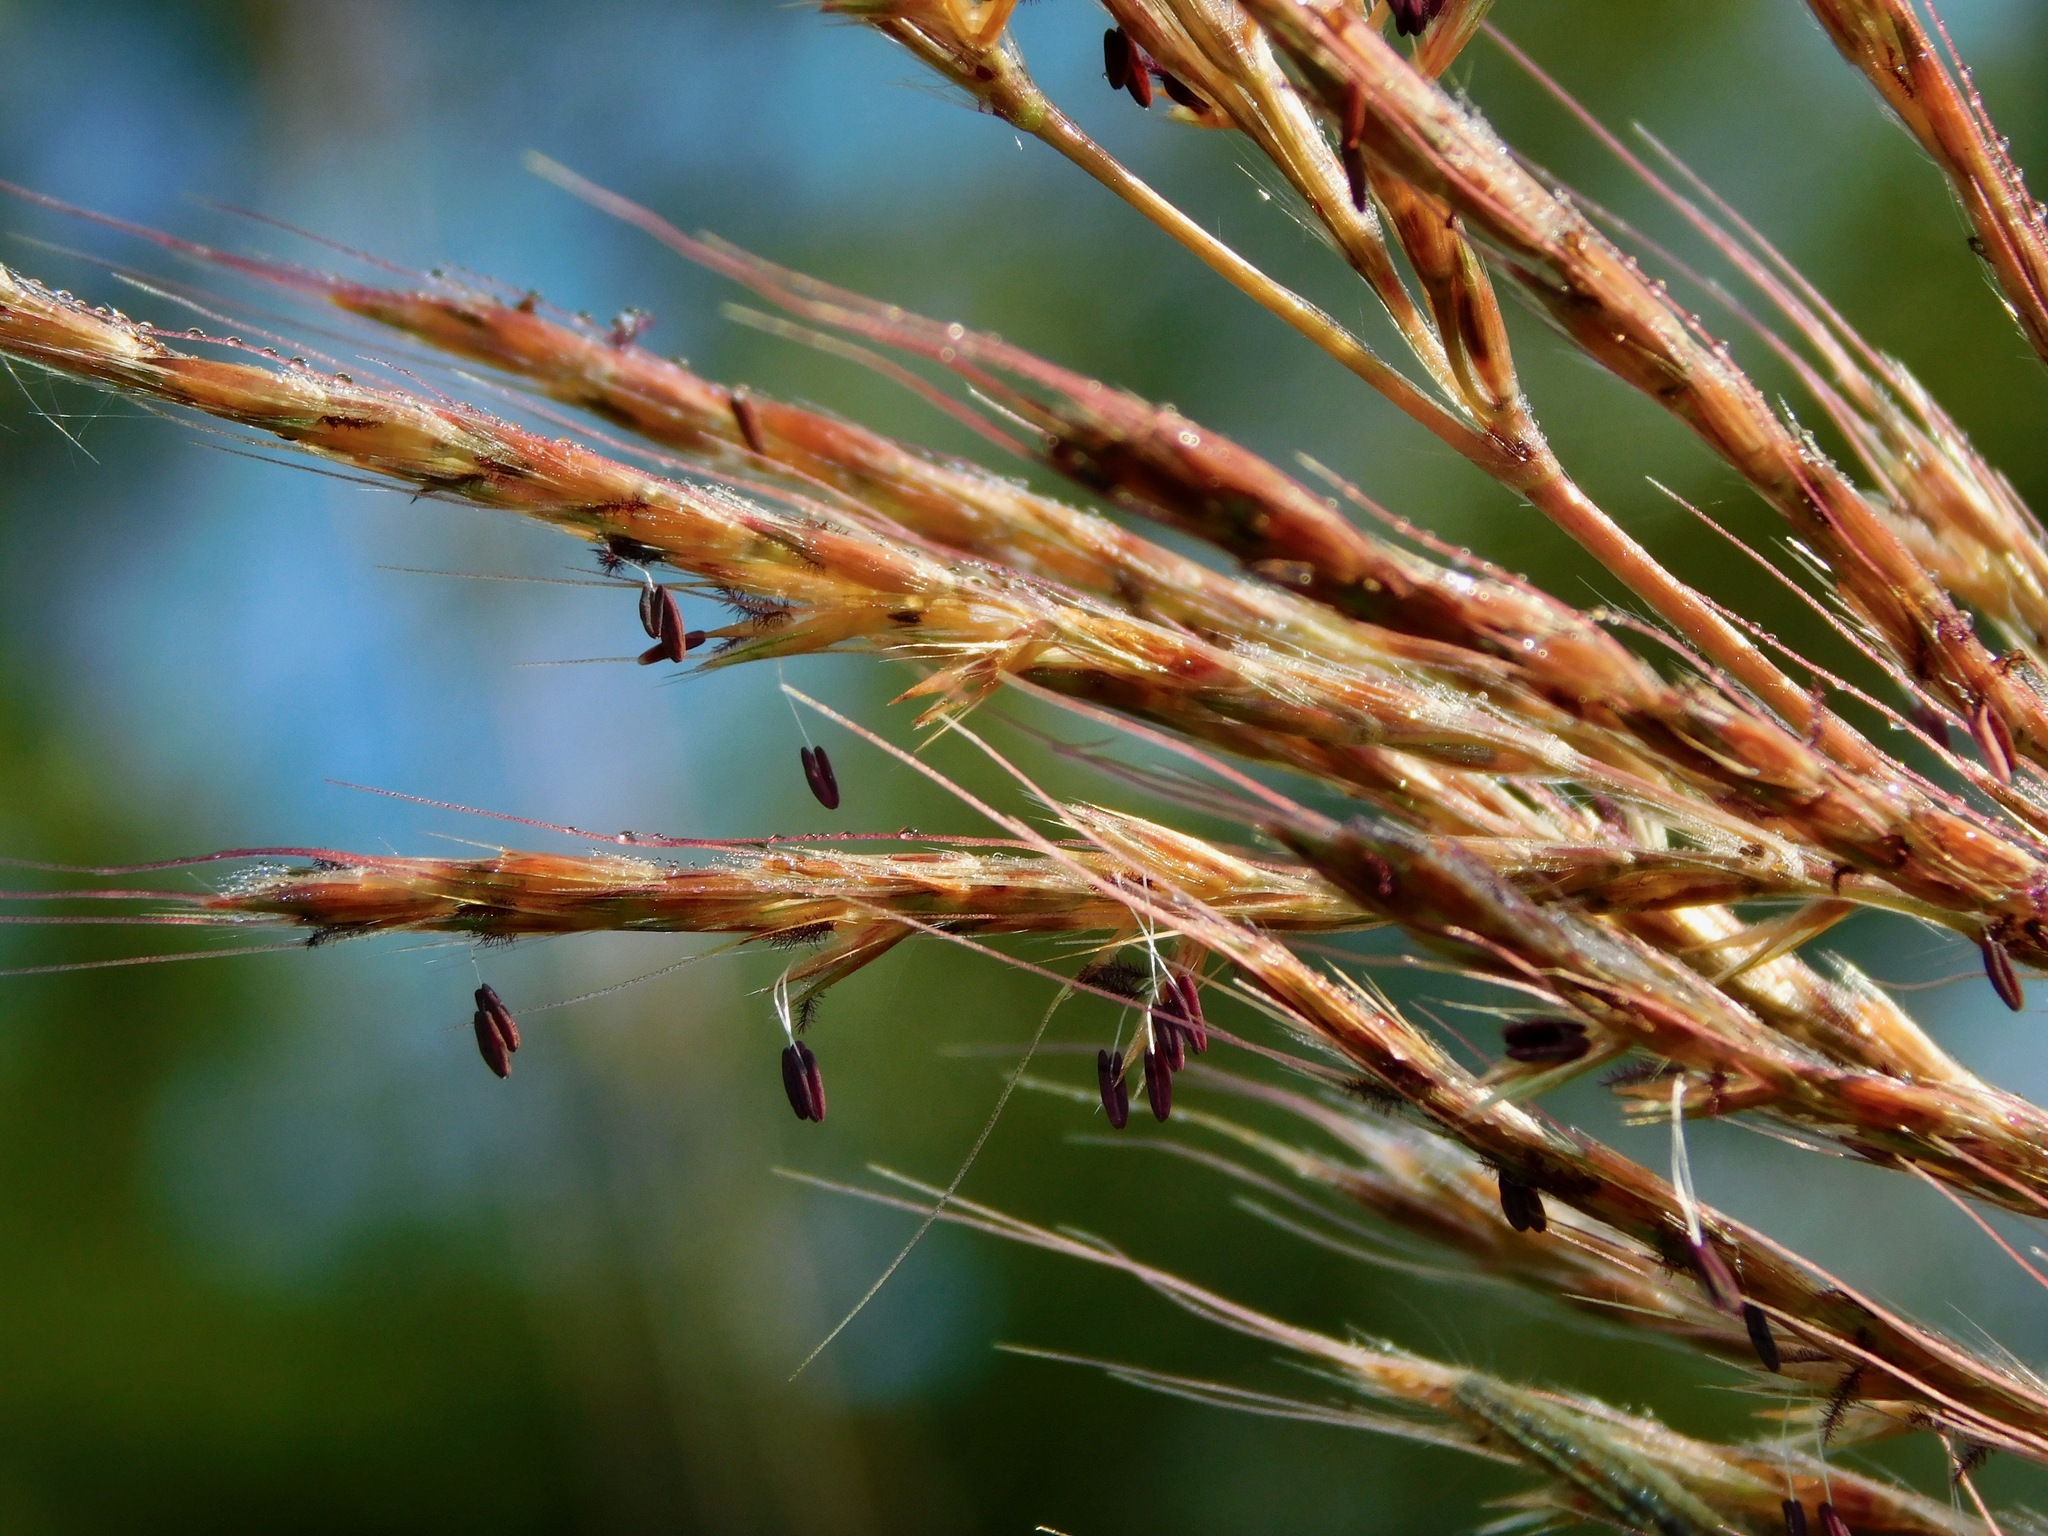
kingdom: Plantae
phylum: Tracheophyta
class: Liliopsida
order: Poales
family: Poaceae
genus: Erianthus
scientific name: Erianthus giganteus
